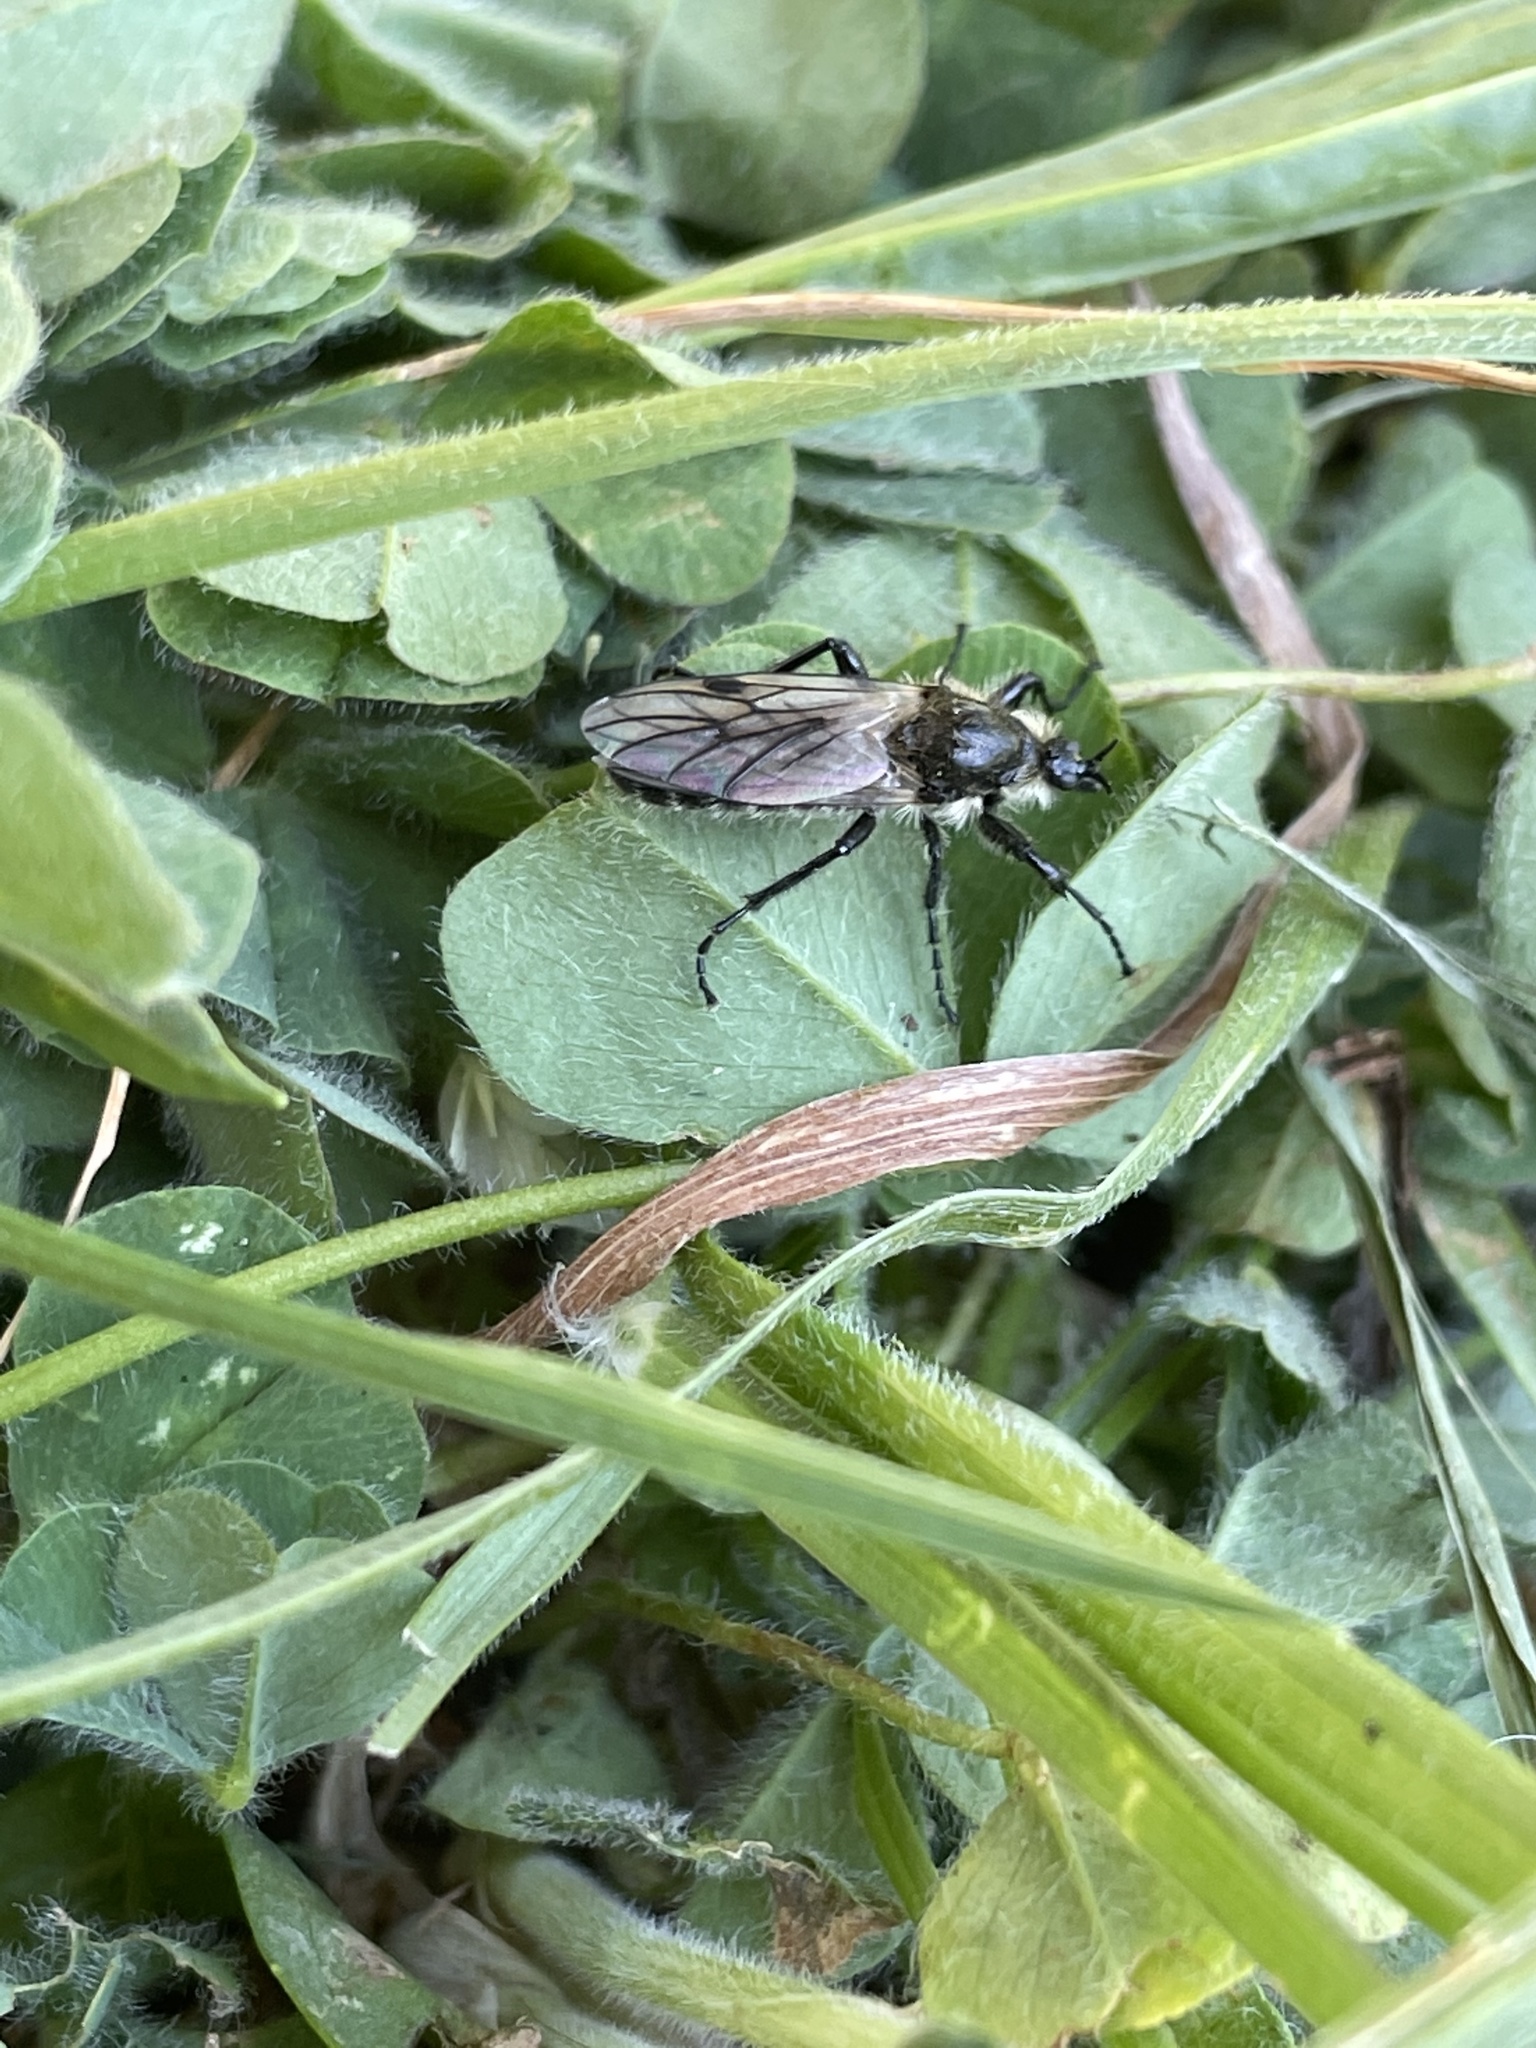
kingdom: Animalia
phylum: Arthropoda
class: Insecta
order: Diptera
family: Bibionidae
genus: Bibio
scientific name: Bibio albipennis
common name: White-winged march fly
